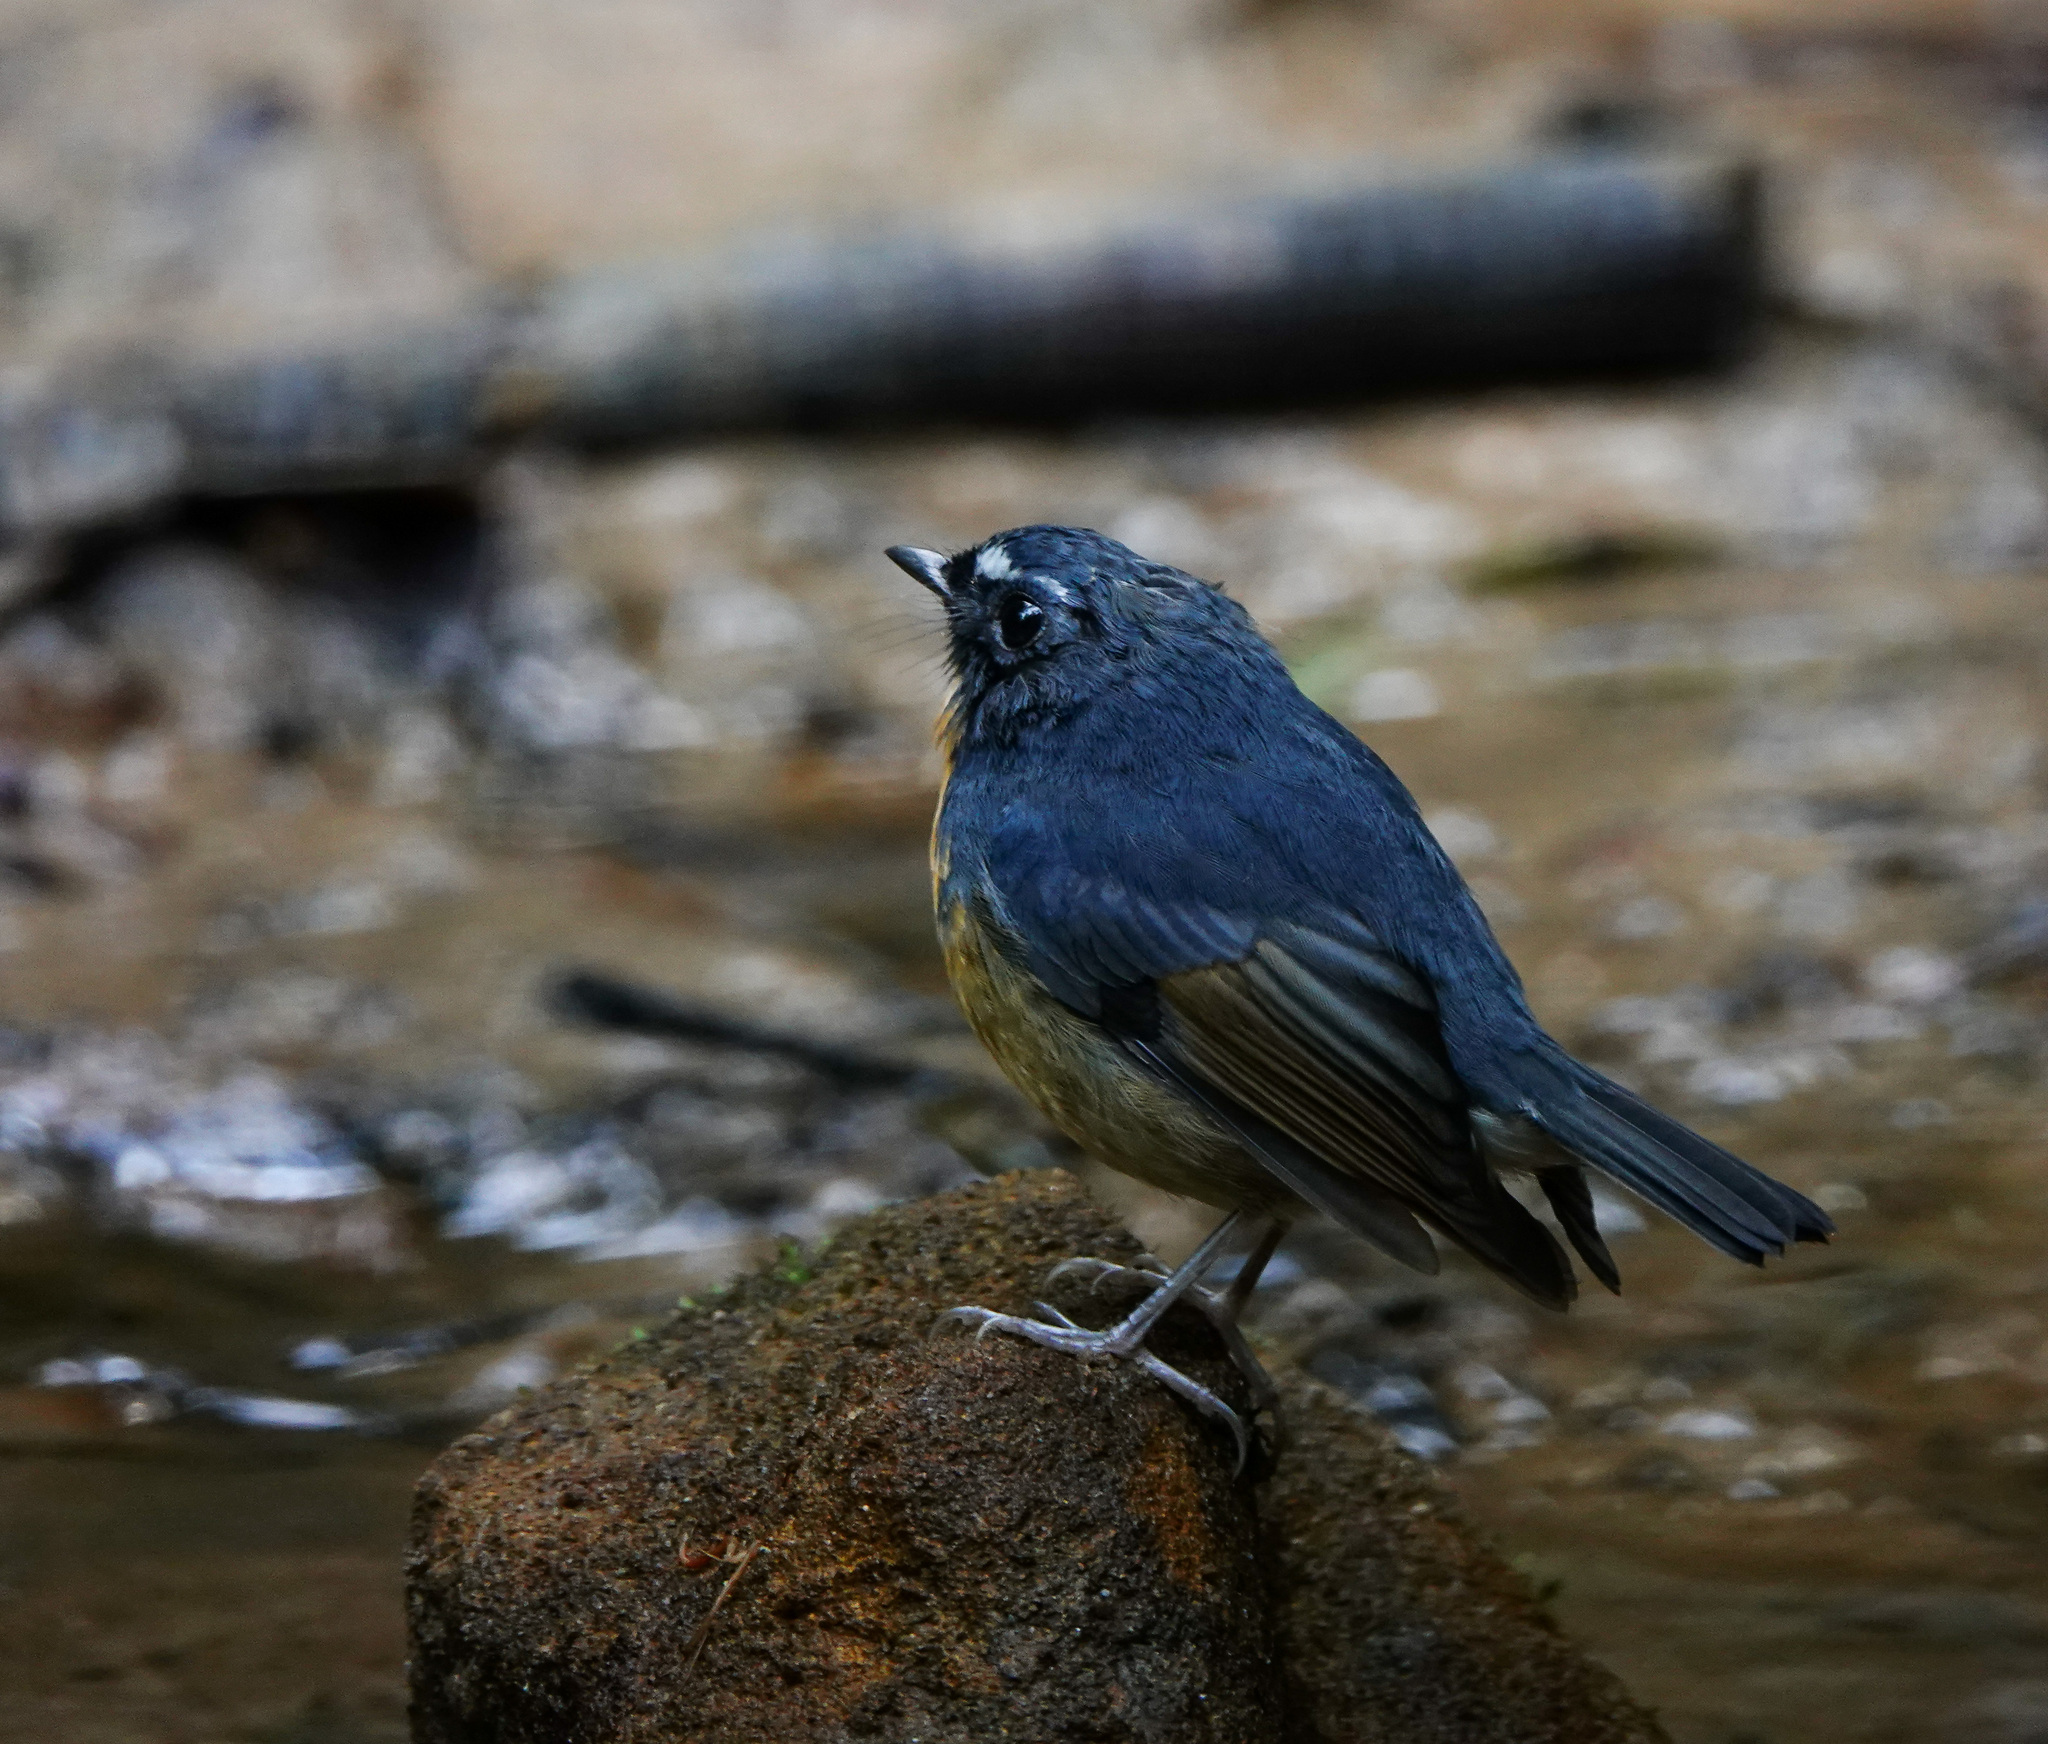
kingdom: Animalia
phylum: Chordata
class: Aves
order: Passeriformes
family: Muscicapidae
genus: Ficedula
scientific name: Ficedula hyperythra
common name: Snowy-browed flycatcher
